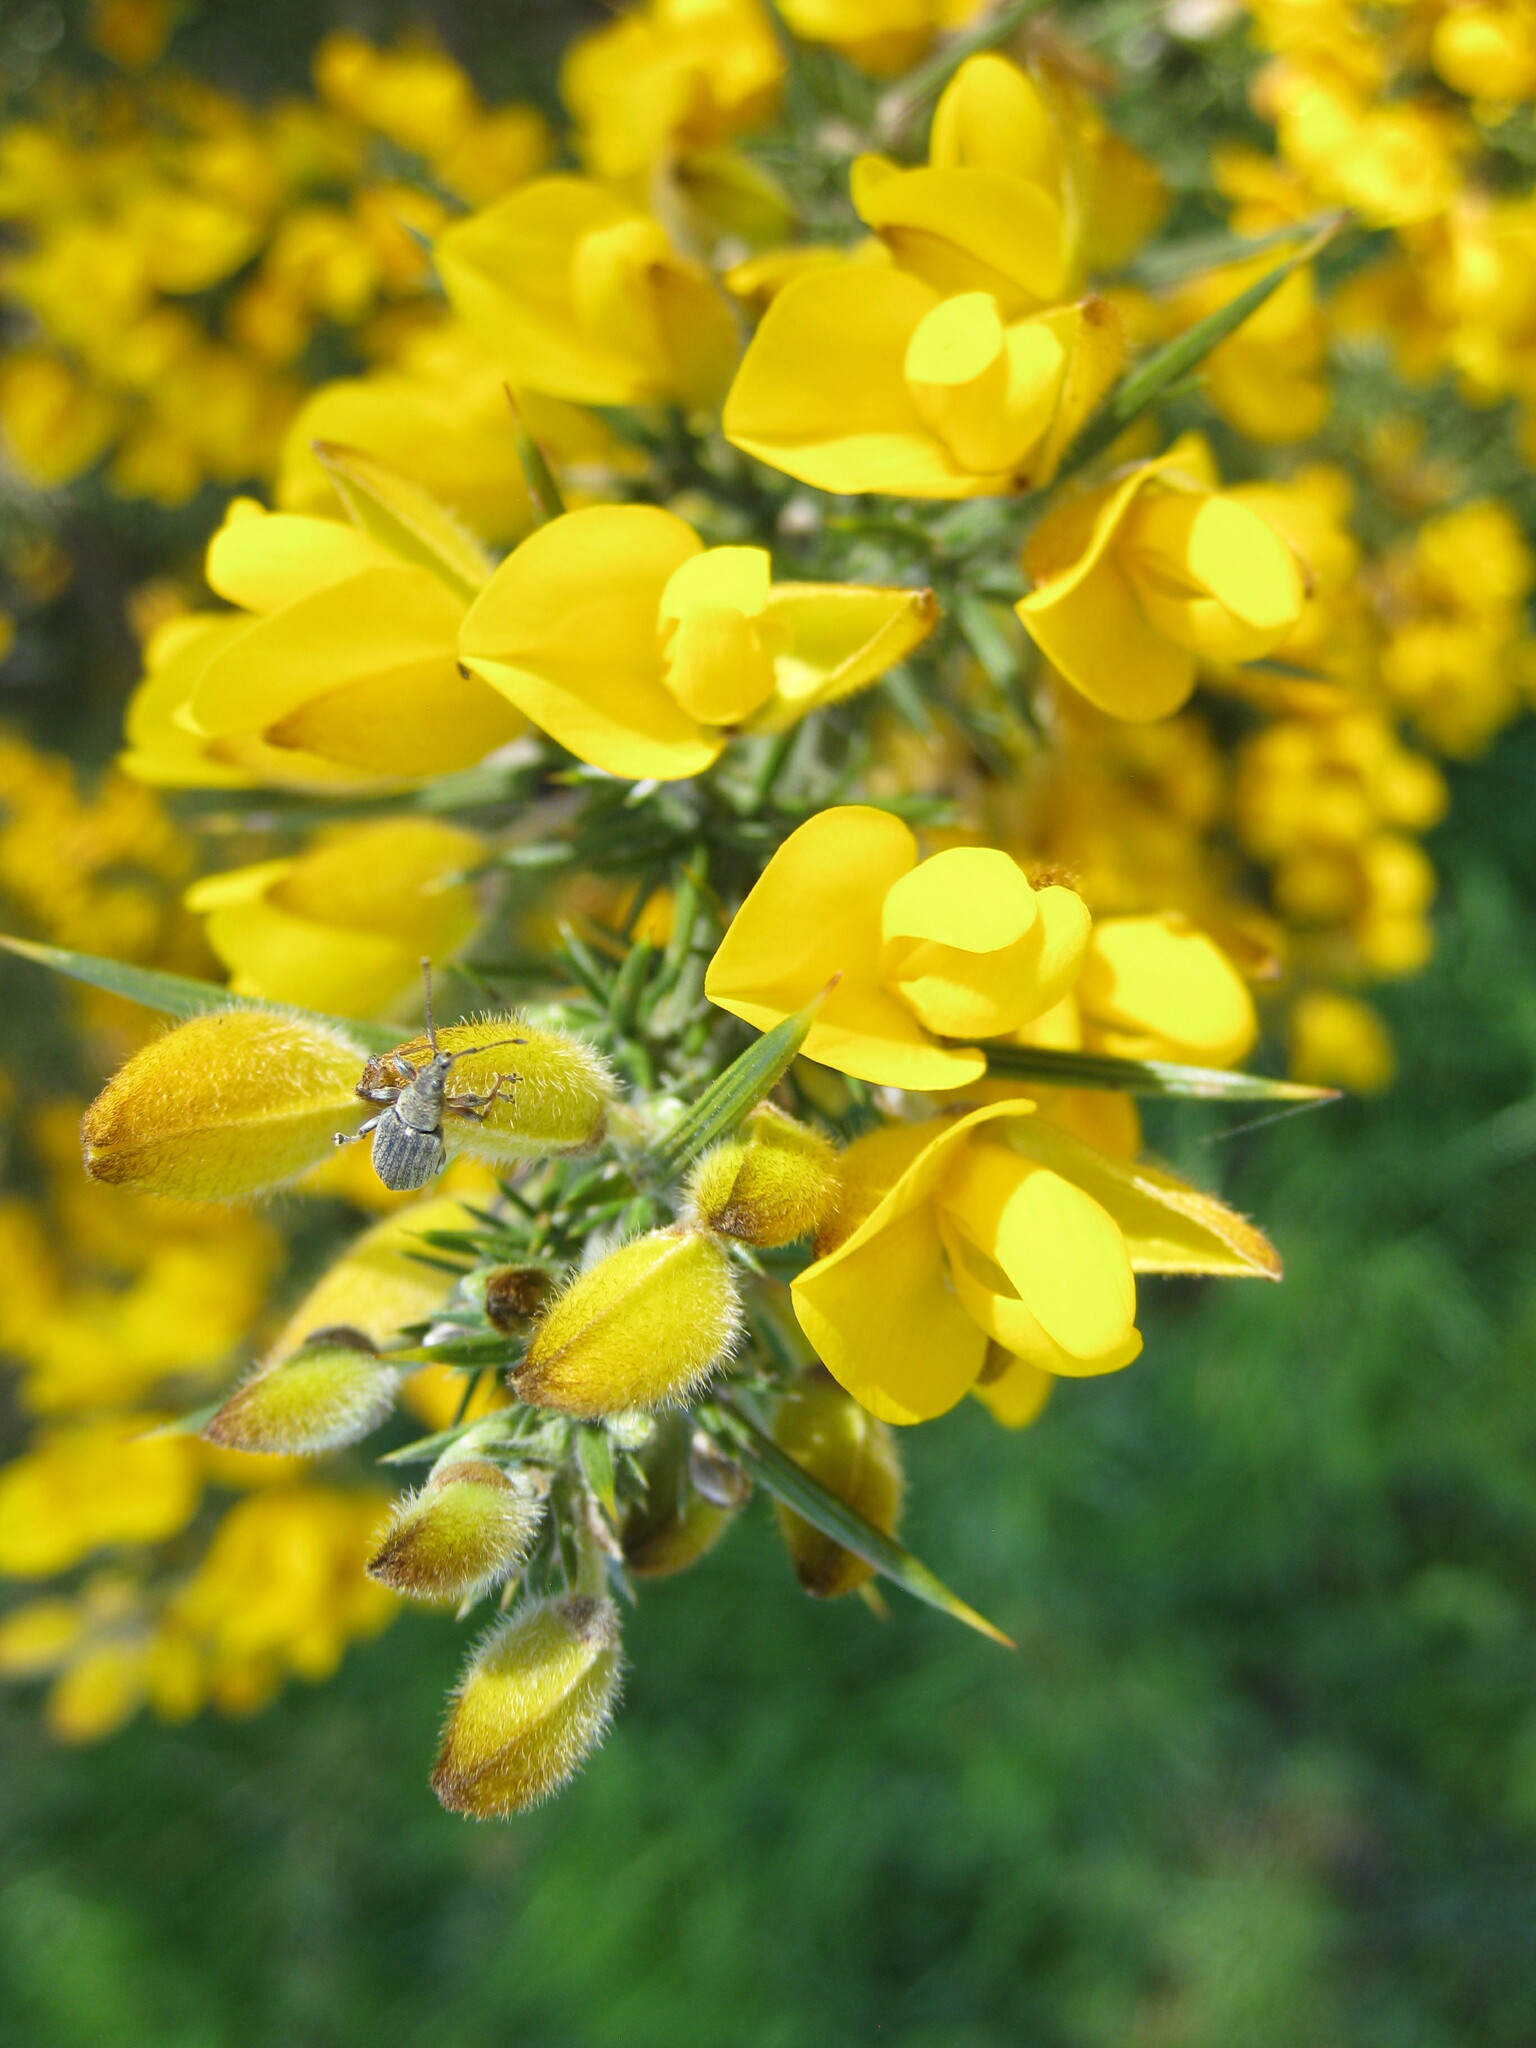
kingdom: Animalia
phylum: Arthropoda
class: Insecta
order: Coleoptera
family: Curculionidae
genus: Phyllobius
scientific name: Phyllobius pyri
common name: Common leaf weevil
